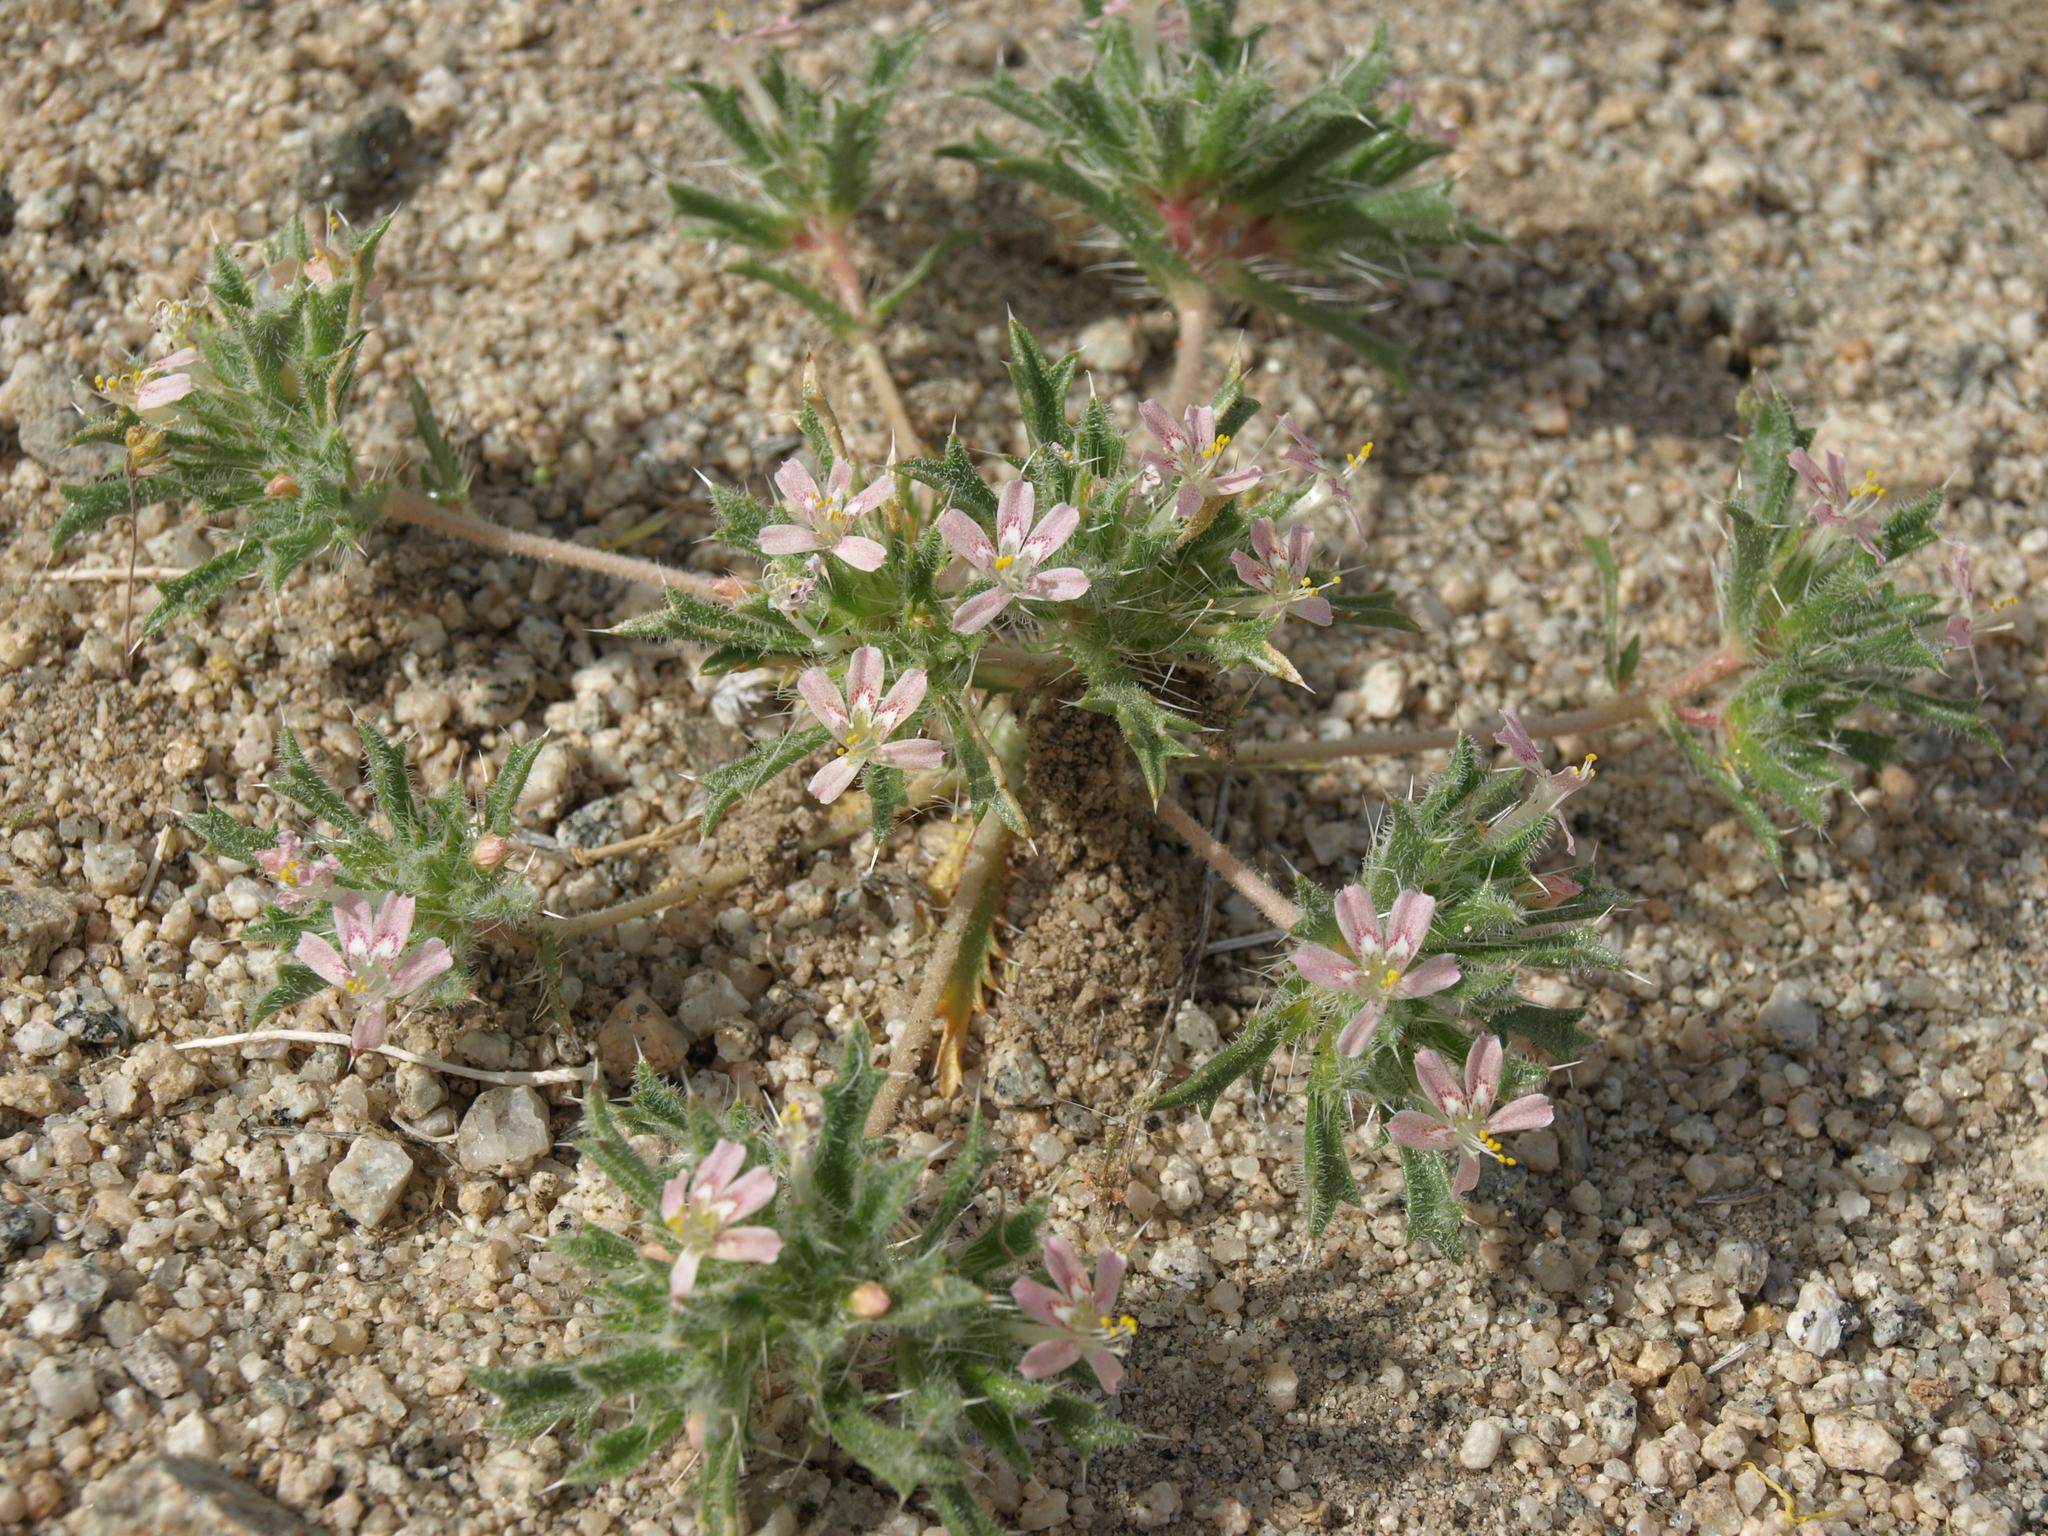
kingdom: Plantae
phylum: Tracheophyta
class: Magnoliopsida
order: Ericales
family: Polemoniaceae
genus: Loeseliastrum
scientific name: Loeseliastrum matthewsii
